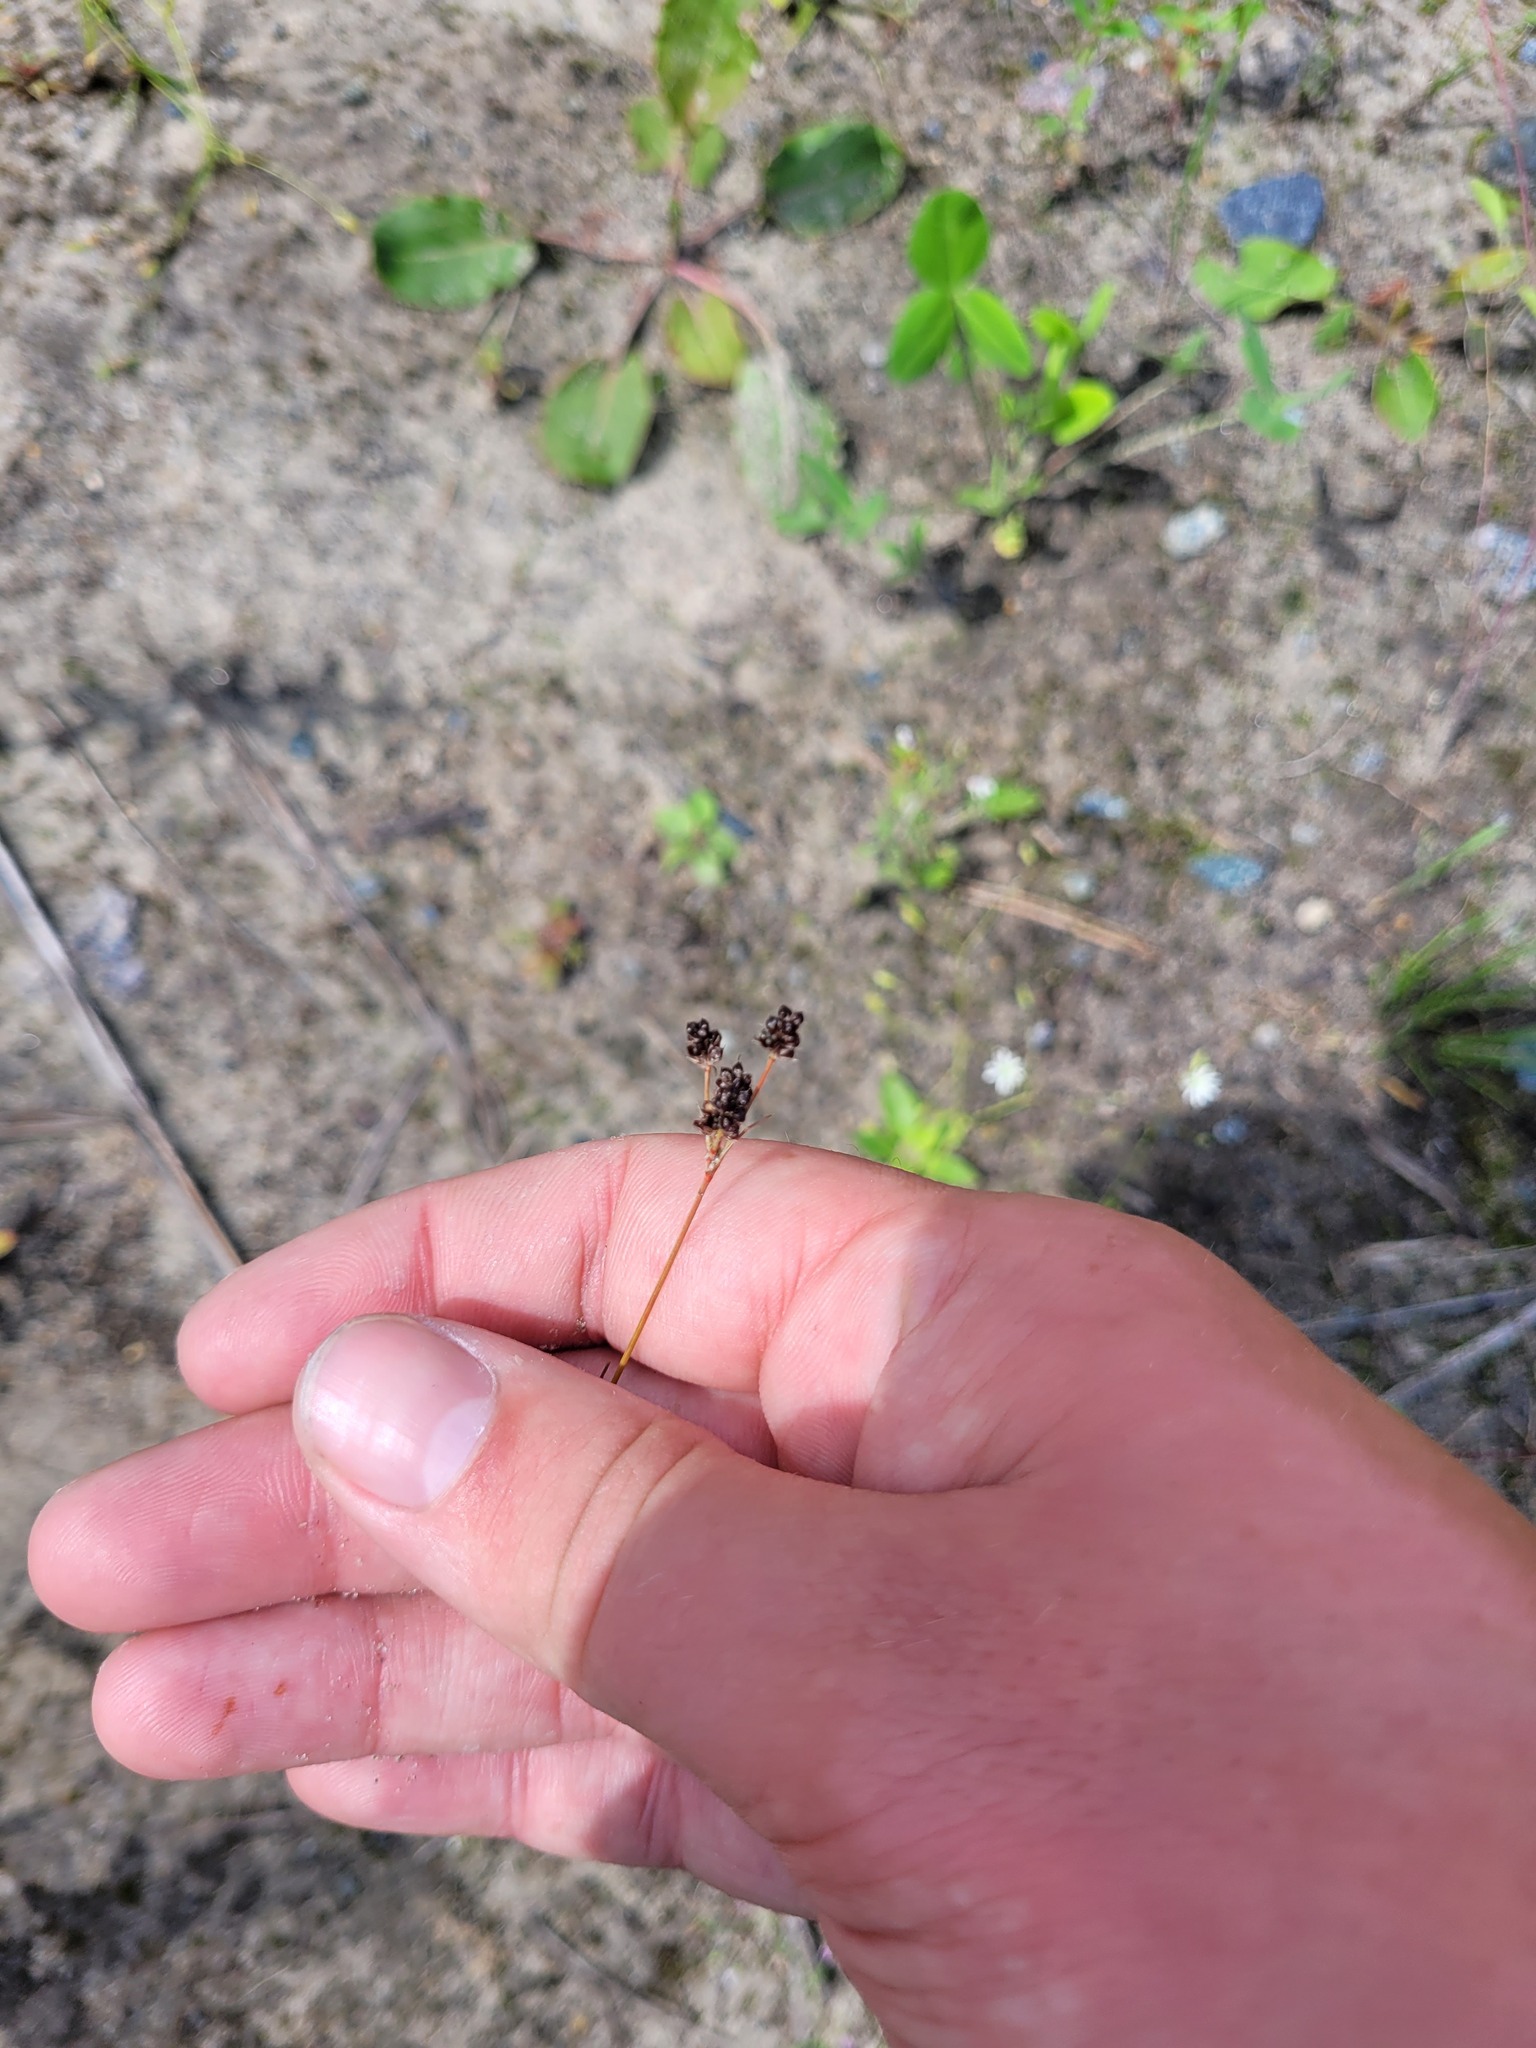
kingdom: Plantae
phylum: Tracheophyta
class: Liliopsida
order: Poales
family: Juncaceae
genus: Luzula
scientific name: Luzula pallescens
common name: Fen wood-rush
